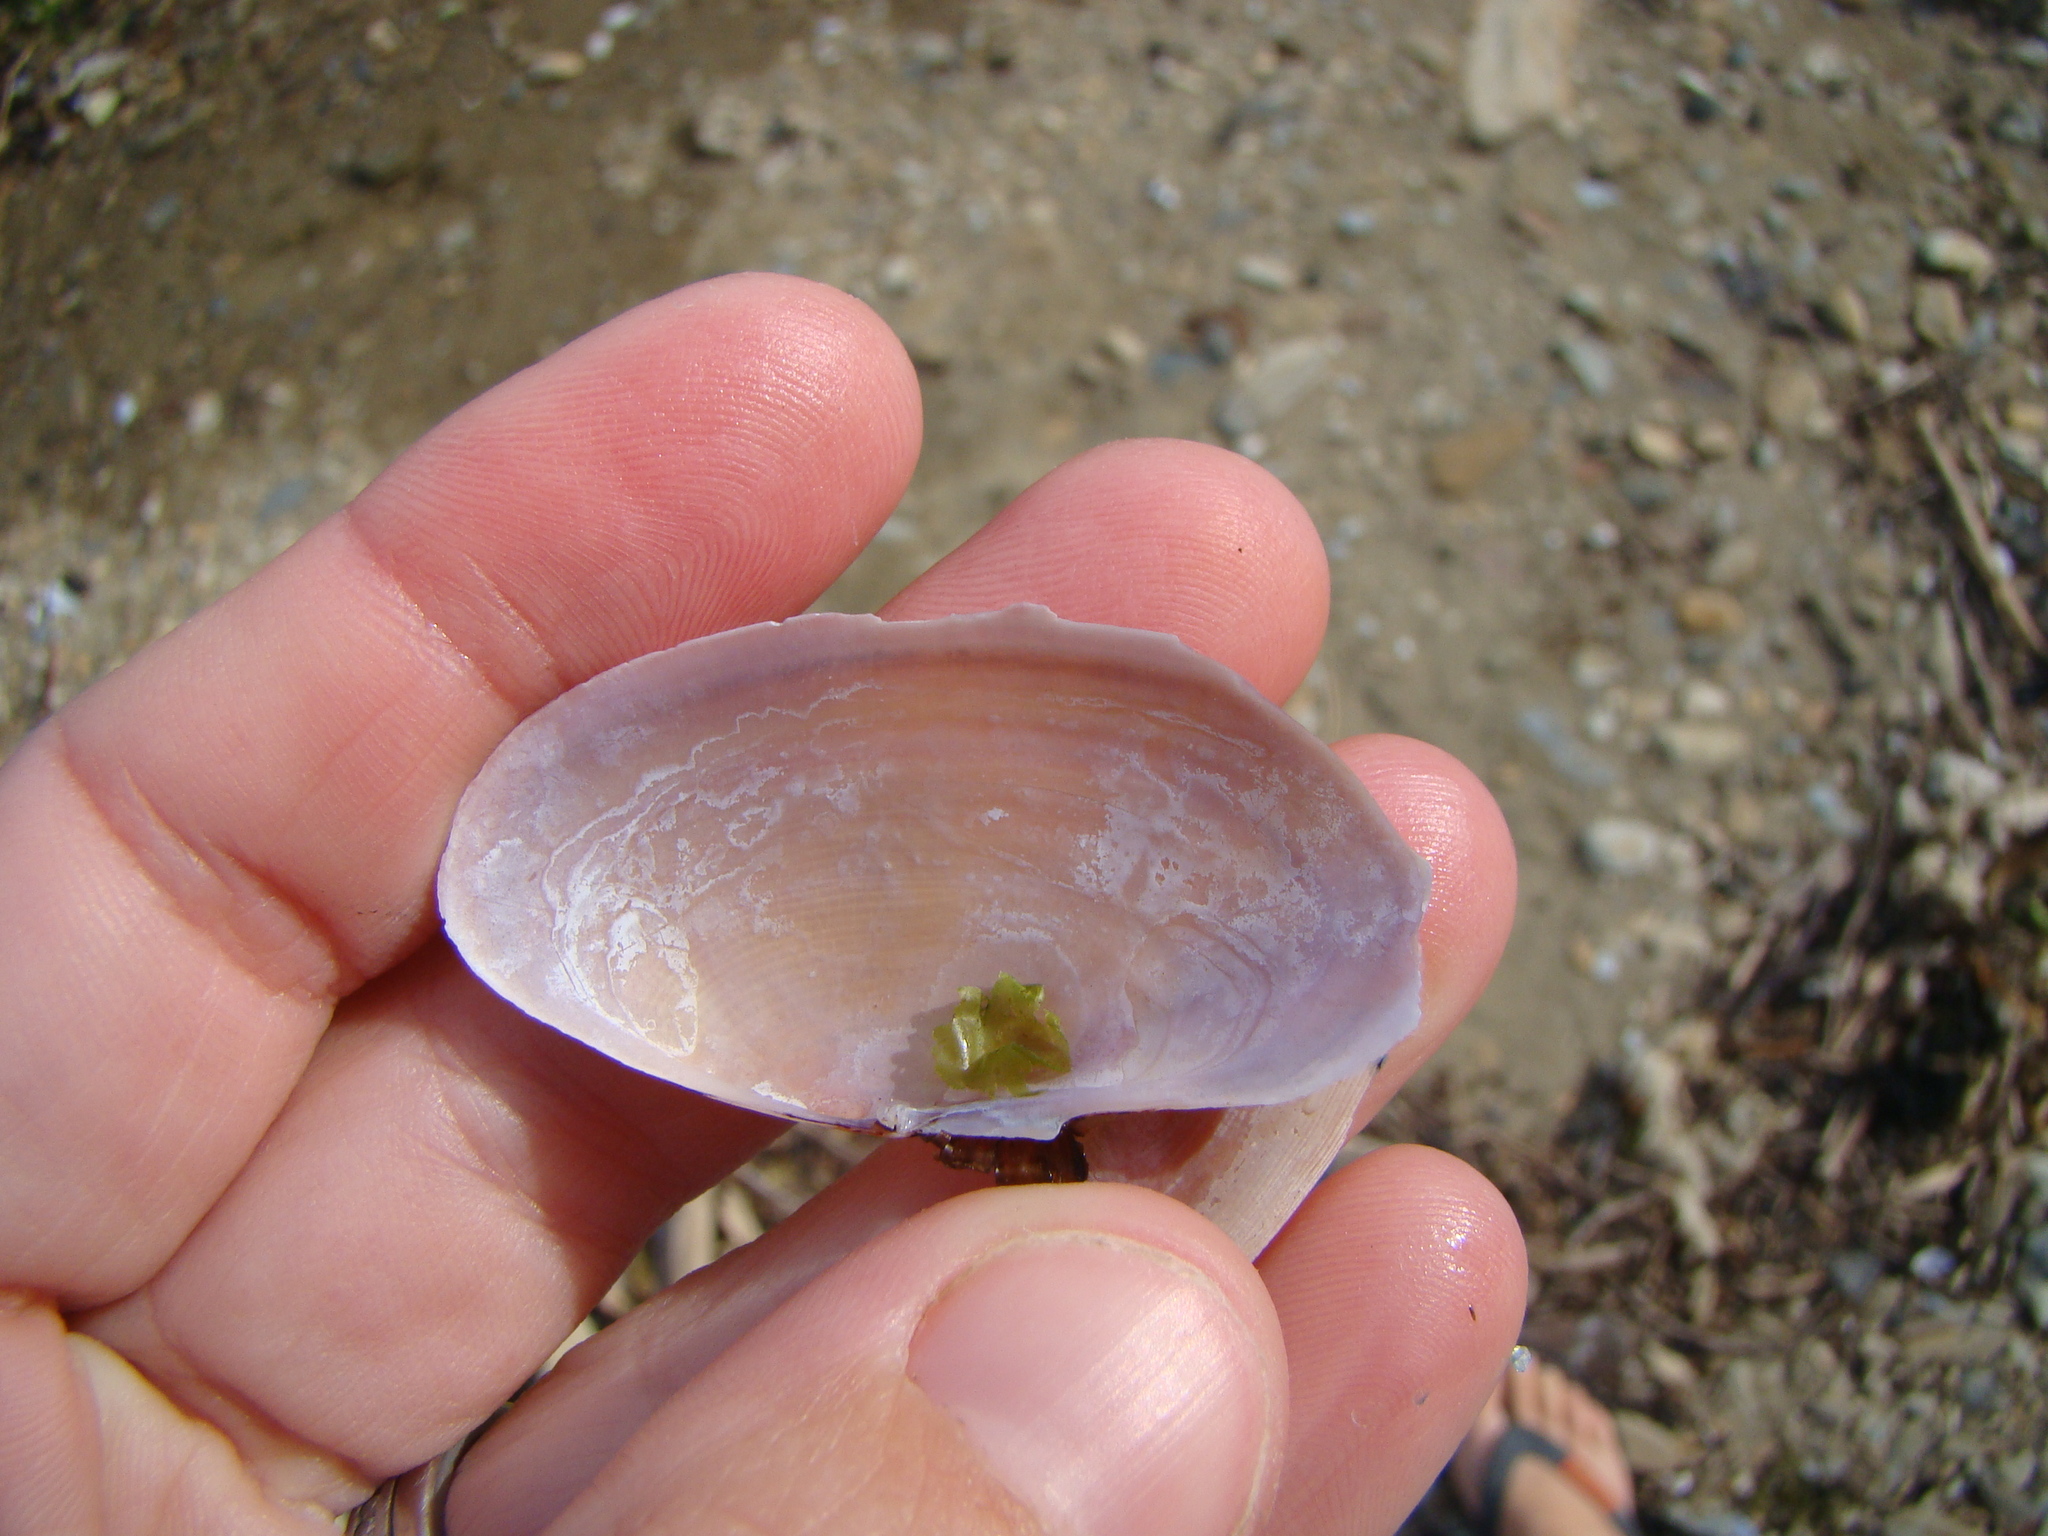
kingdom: Animalia
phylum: Mollusca
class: Bivalvia
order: Cardiida
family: Psammobiidae
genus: Gari
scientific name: Gari lineolata
